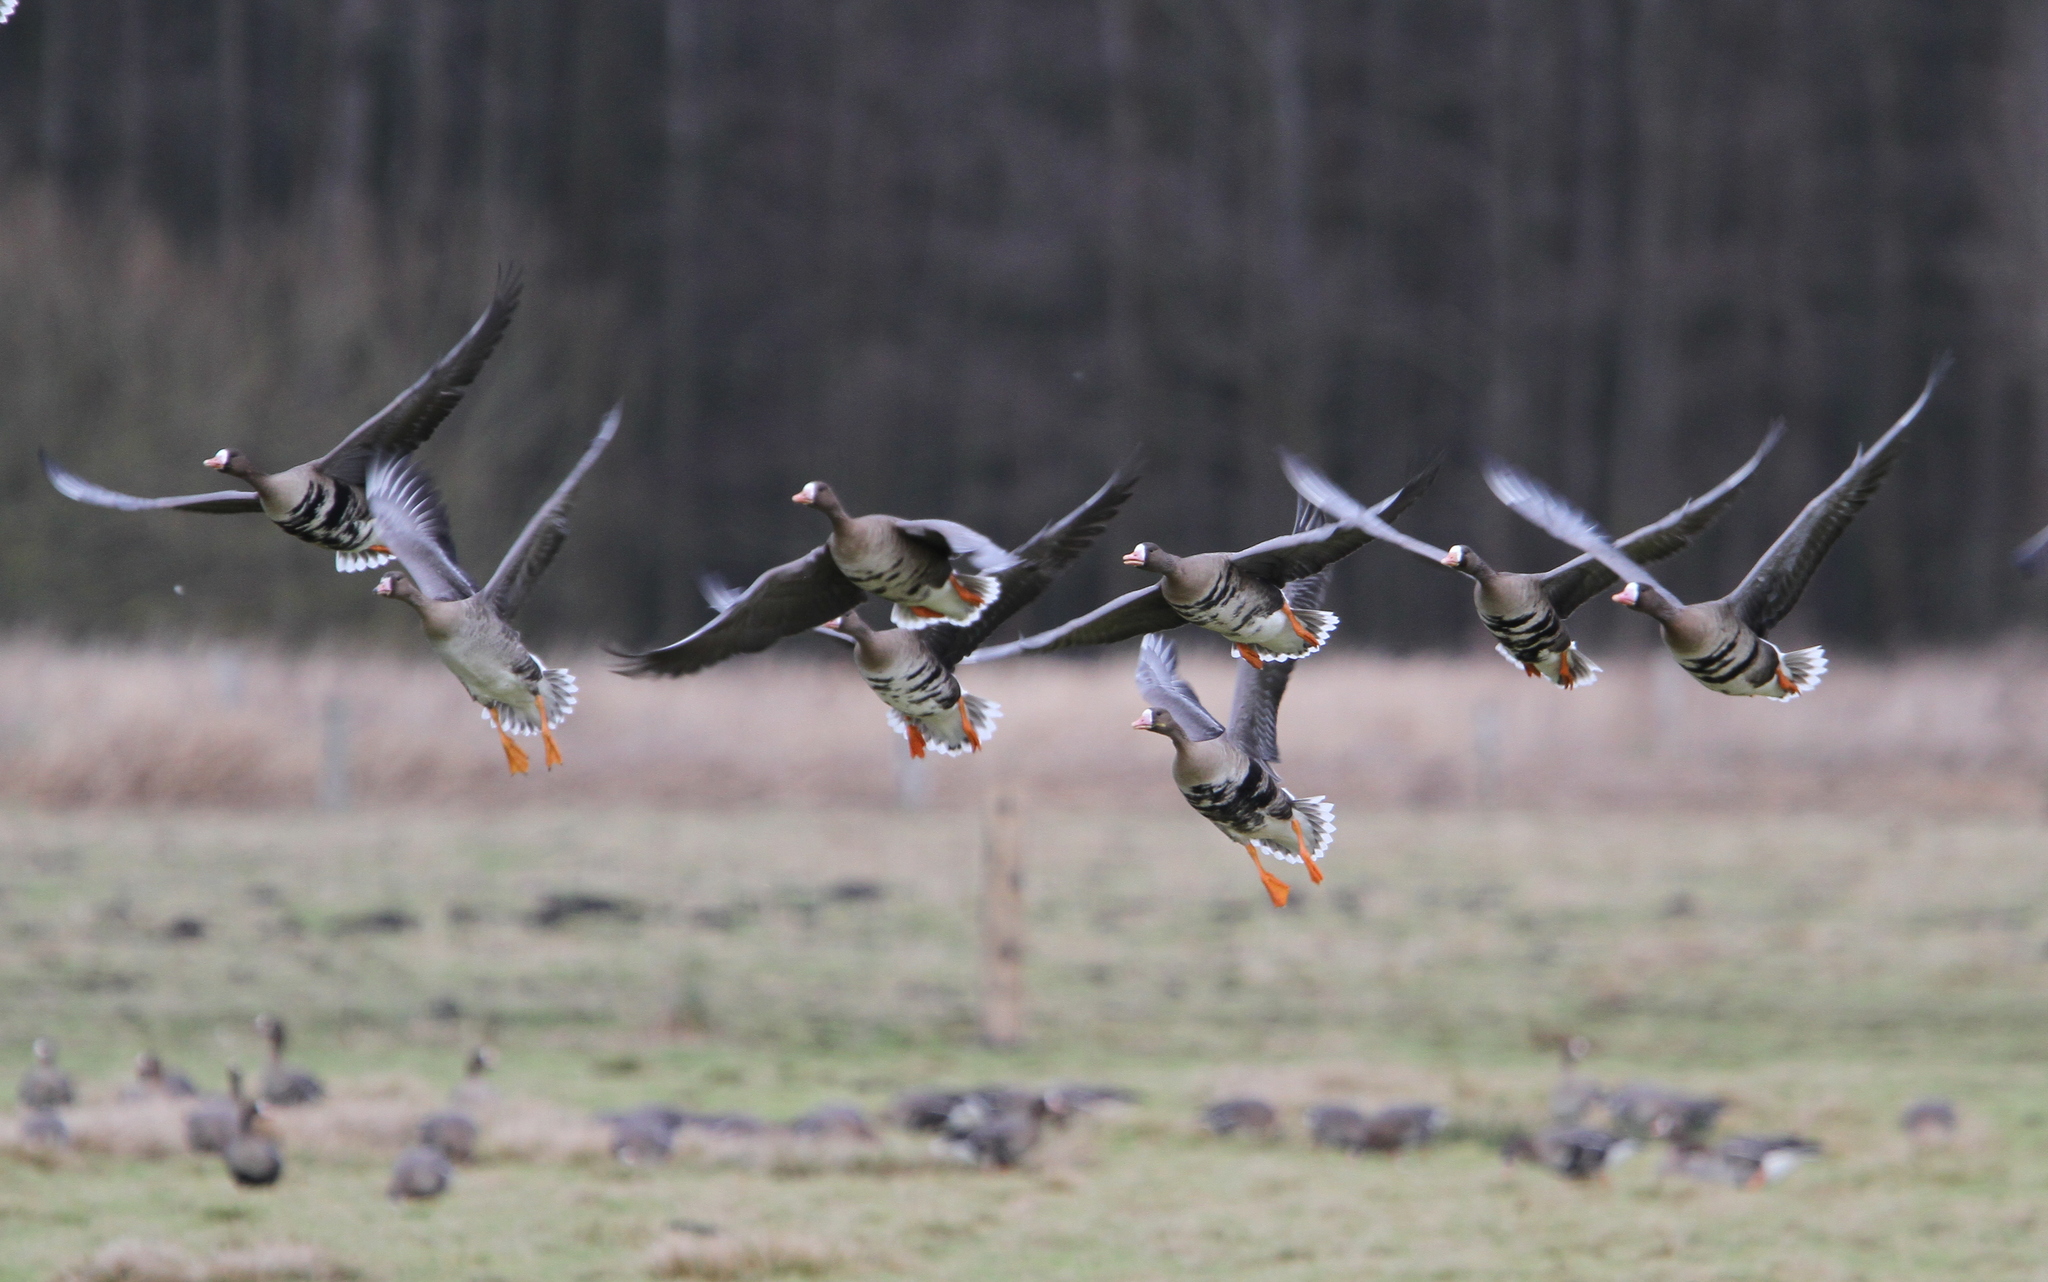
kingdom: Animalia
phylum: Chordata
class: Aves
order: Anseriformes
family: Anatidae
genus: Anser
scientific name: Anser albifrons
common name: Greater white-fronted goose
